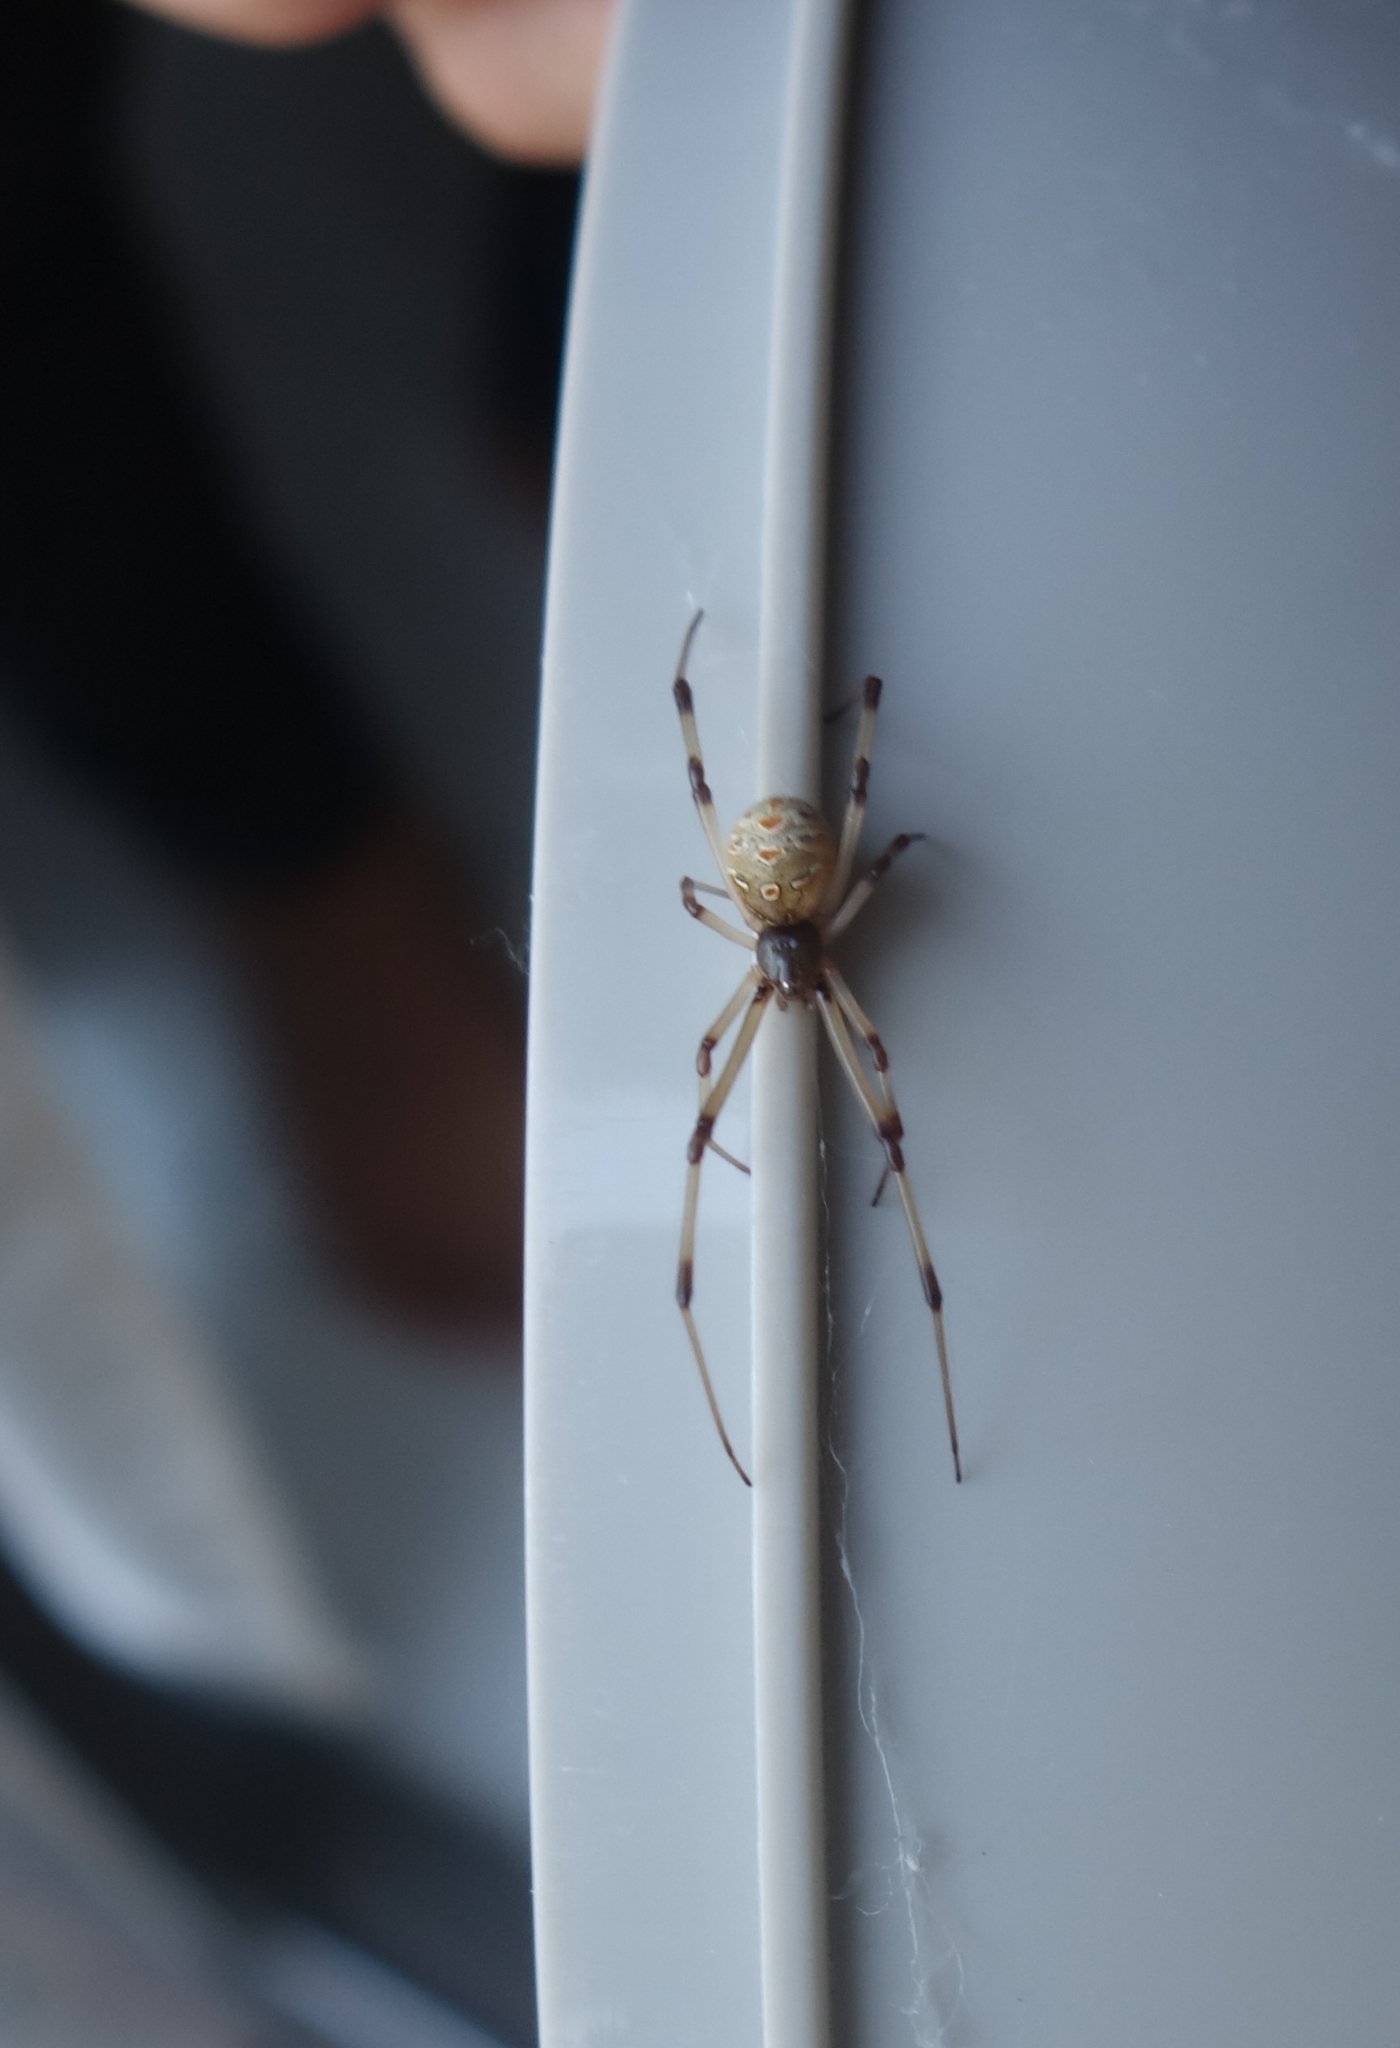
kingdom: Animalia
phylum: Arthropoda
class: Arachnida
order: Araneae
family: Theridiidae
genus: Latrodectus
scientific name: Latrodectus geometricus
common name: Brown widow spider
